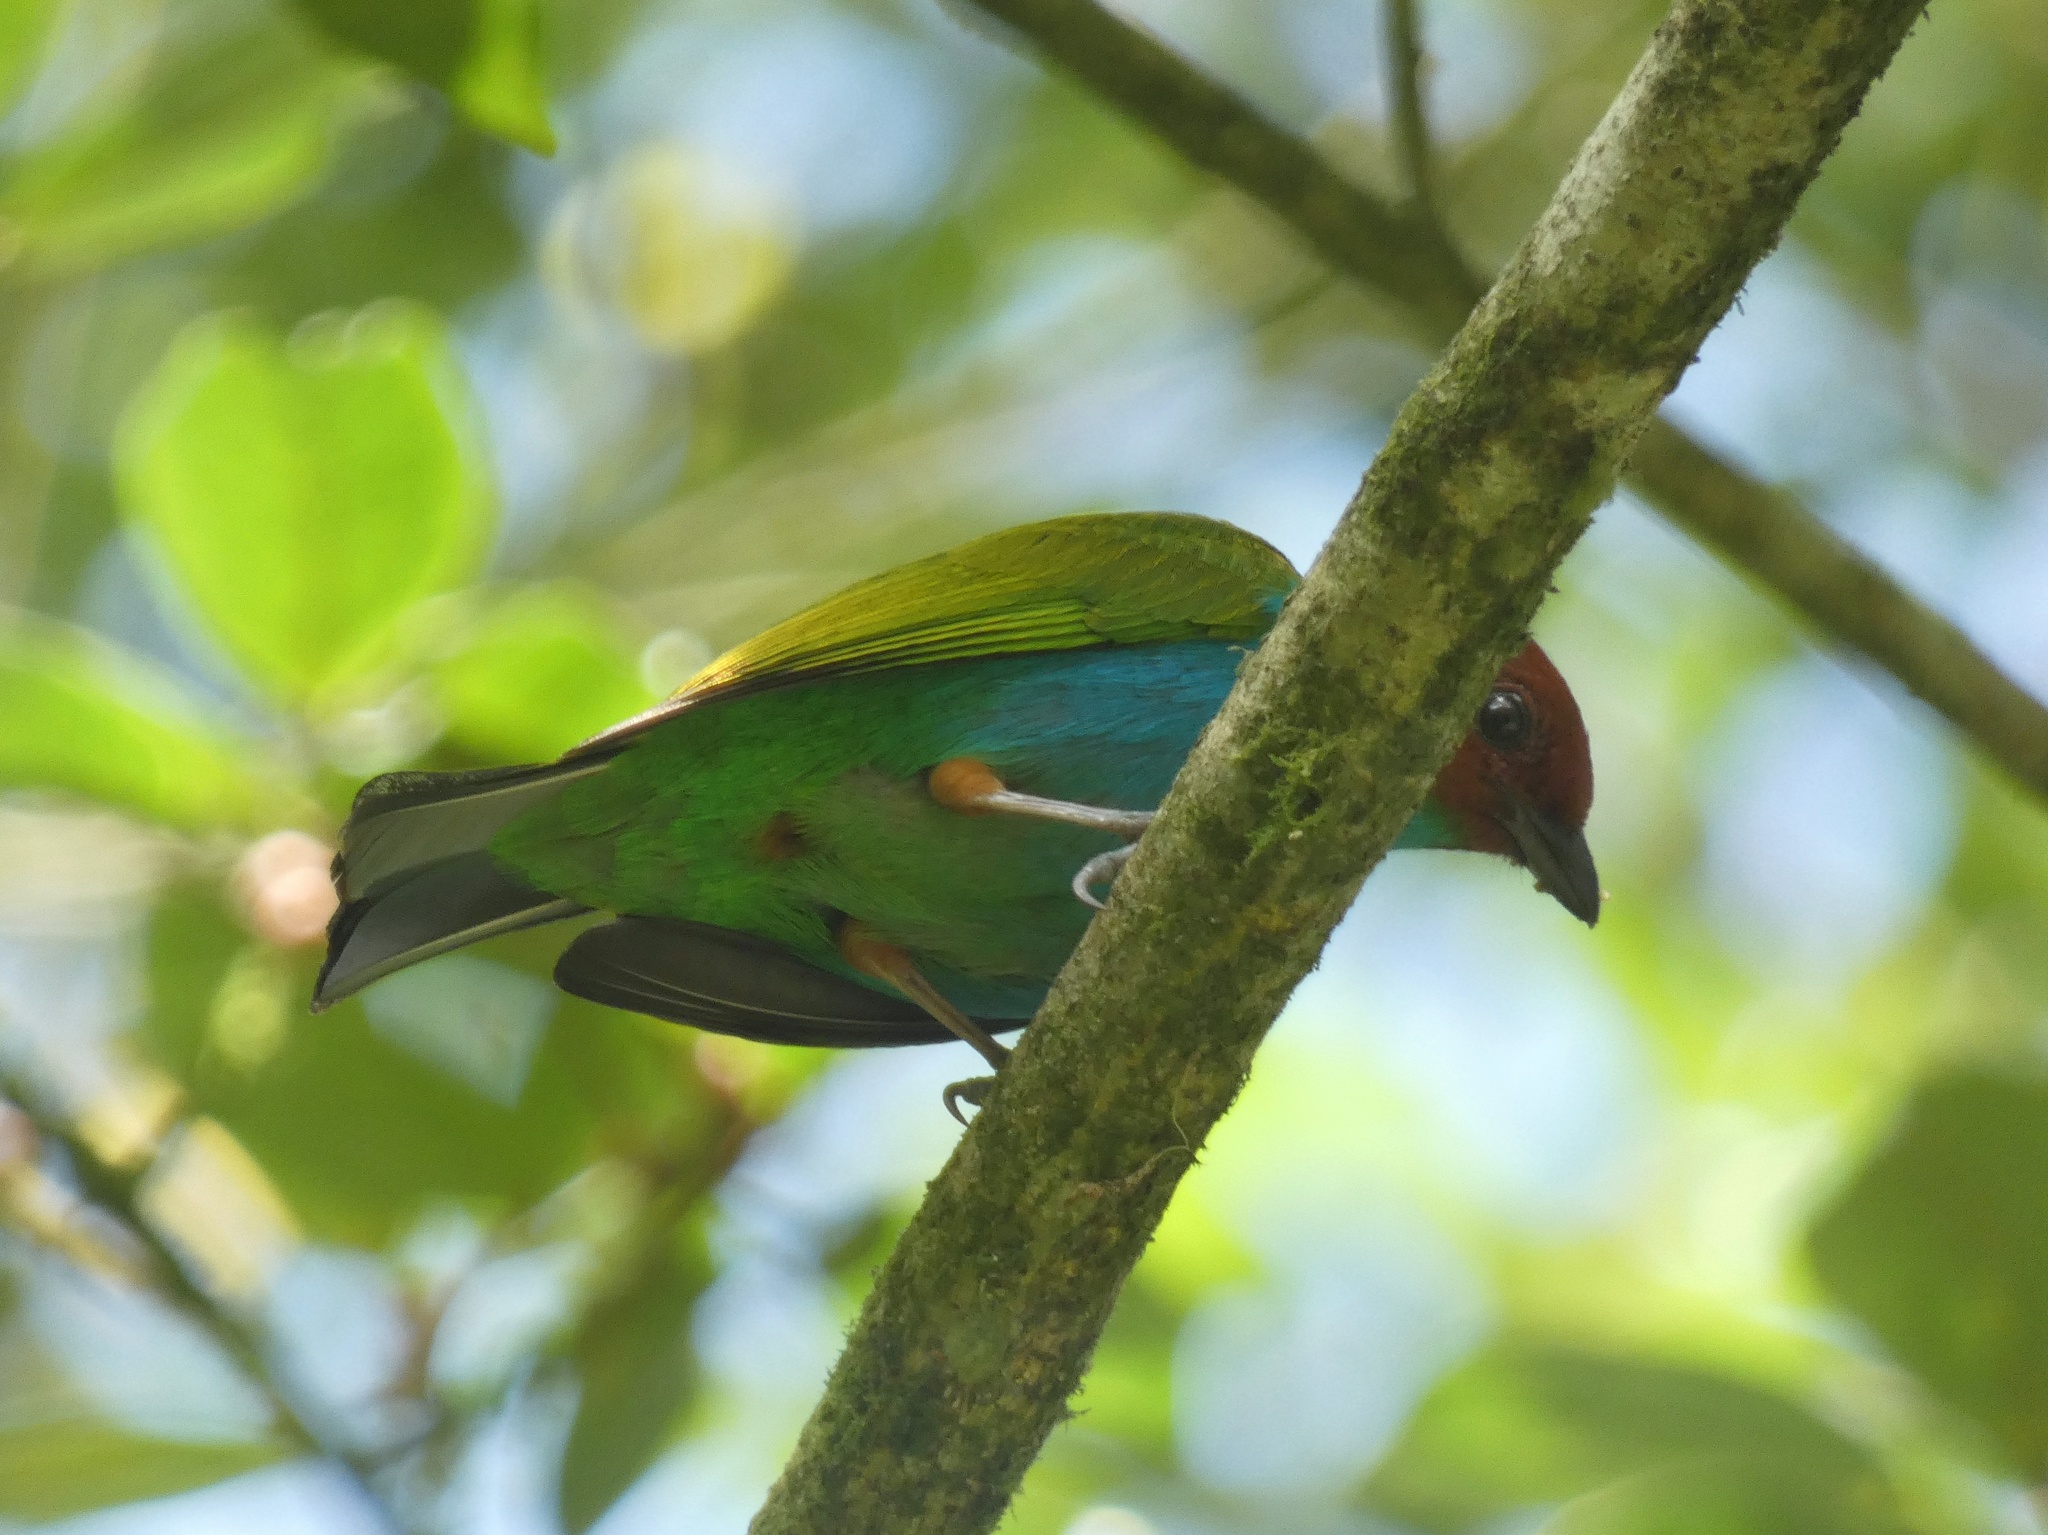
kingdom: Animalia
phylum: Chordata
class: Aves
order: Passeriformes
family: Thraupidae
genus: Tangara
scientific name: Tangara gyrola
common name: Bay-headed tanager
